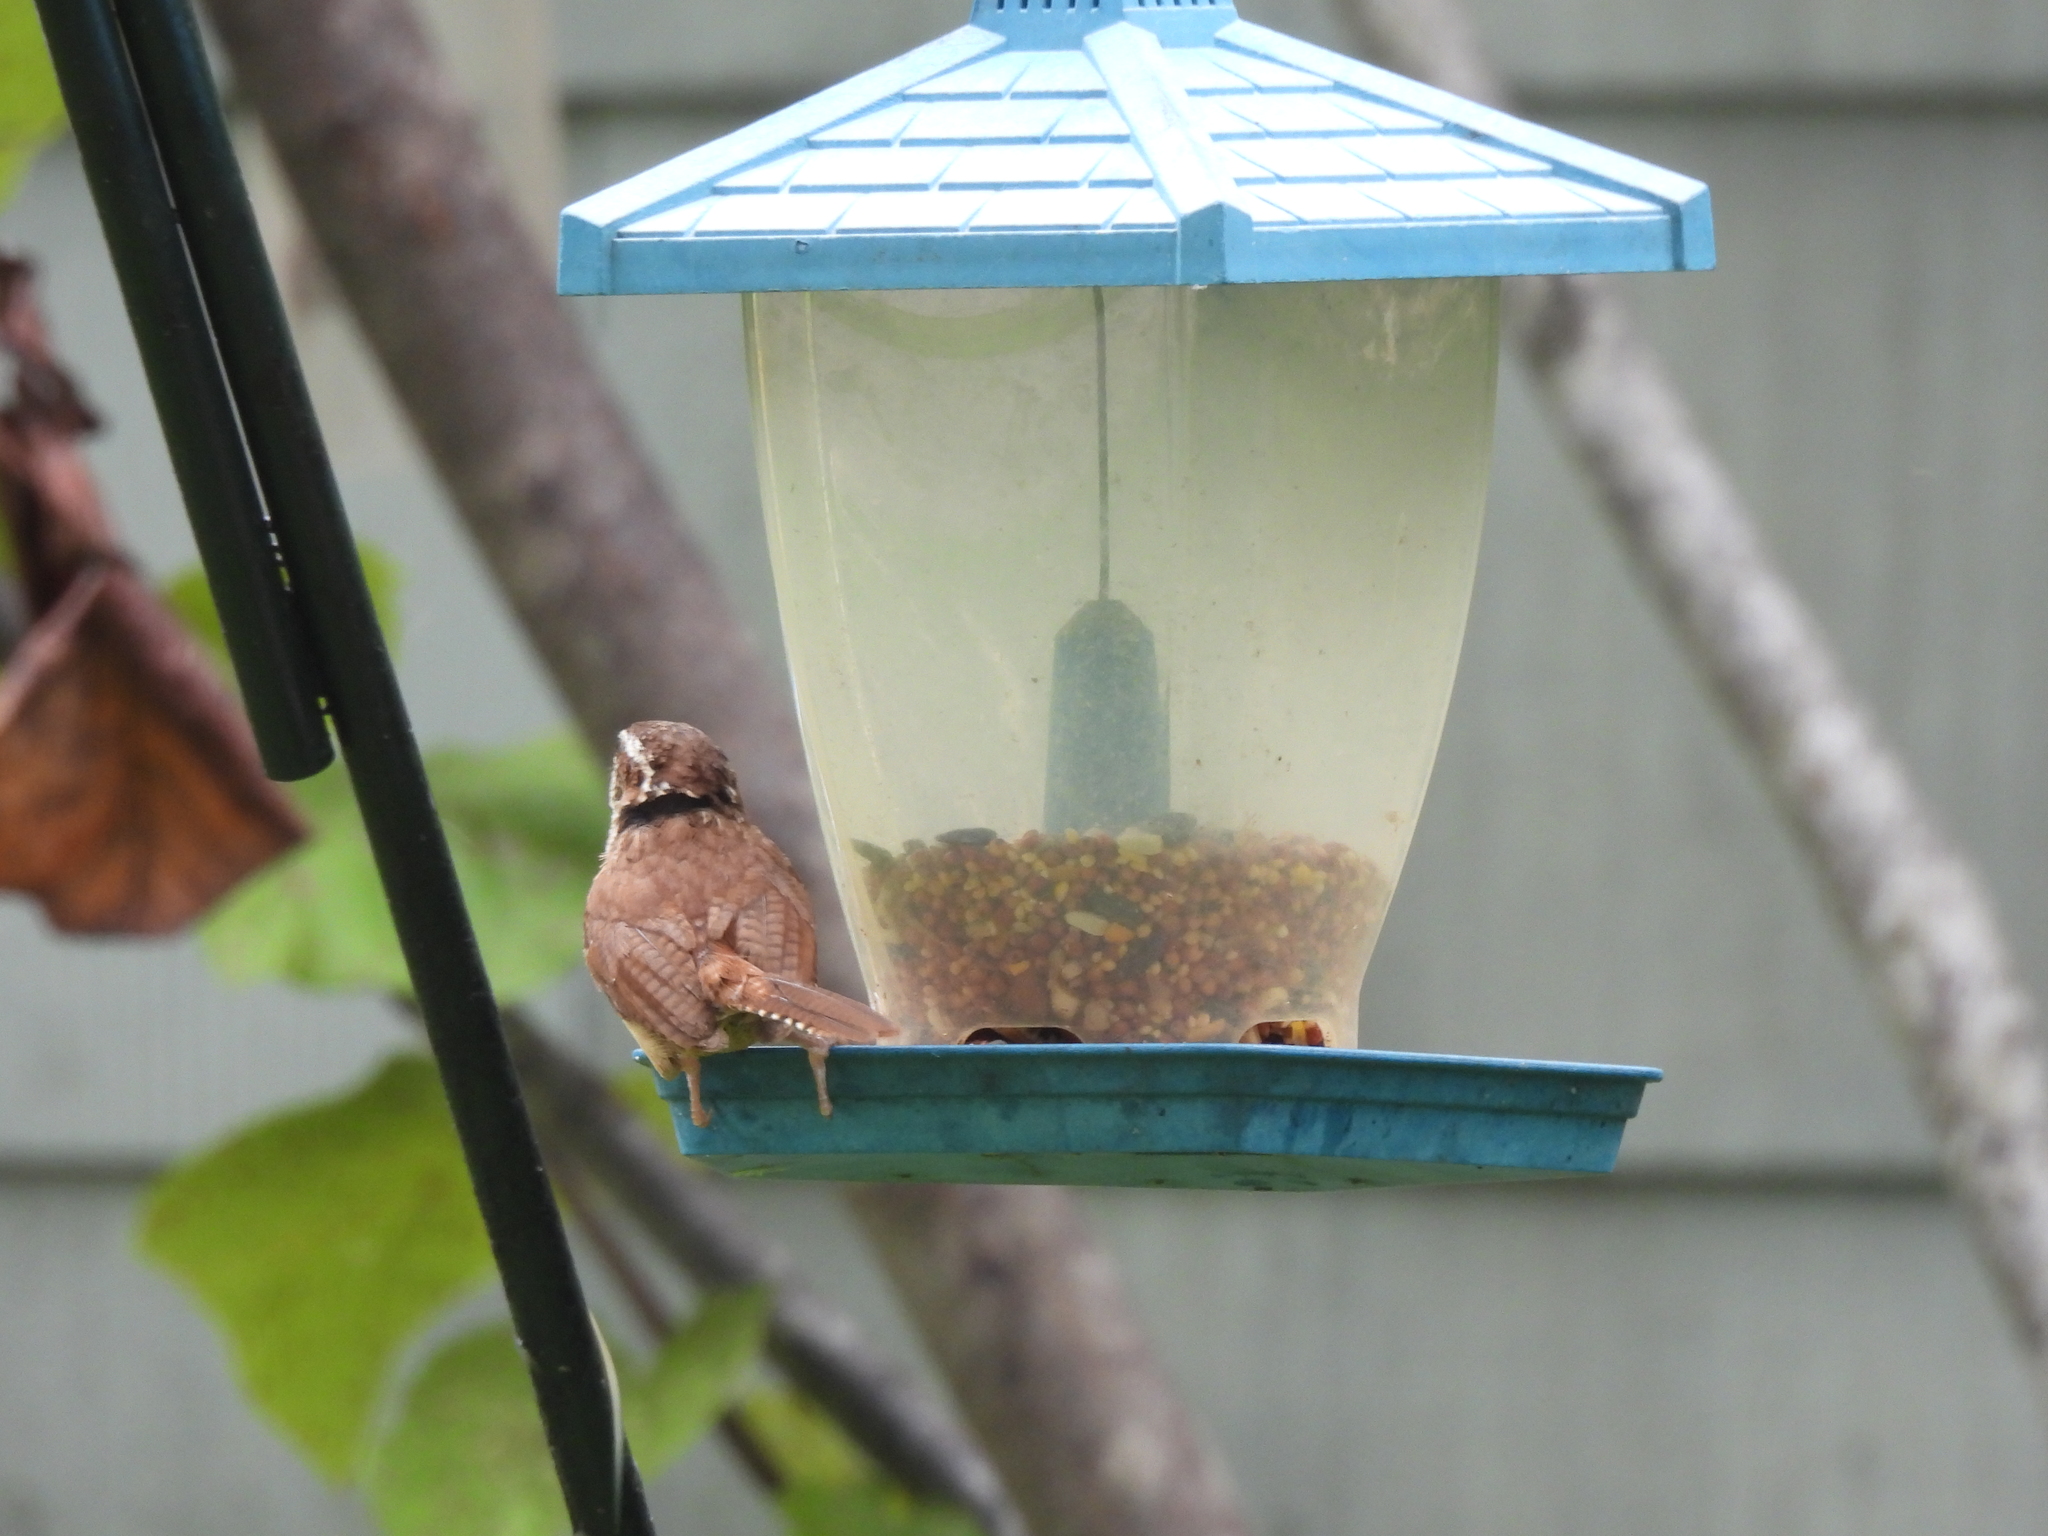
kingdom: Animalia
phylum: Chordata
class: Aves
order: Passeriformes
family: Troglodytidae
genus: Thryothorus
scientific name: Thryothorus ludovicianus
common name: Carolina wren
